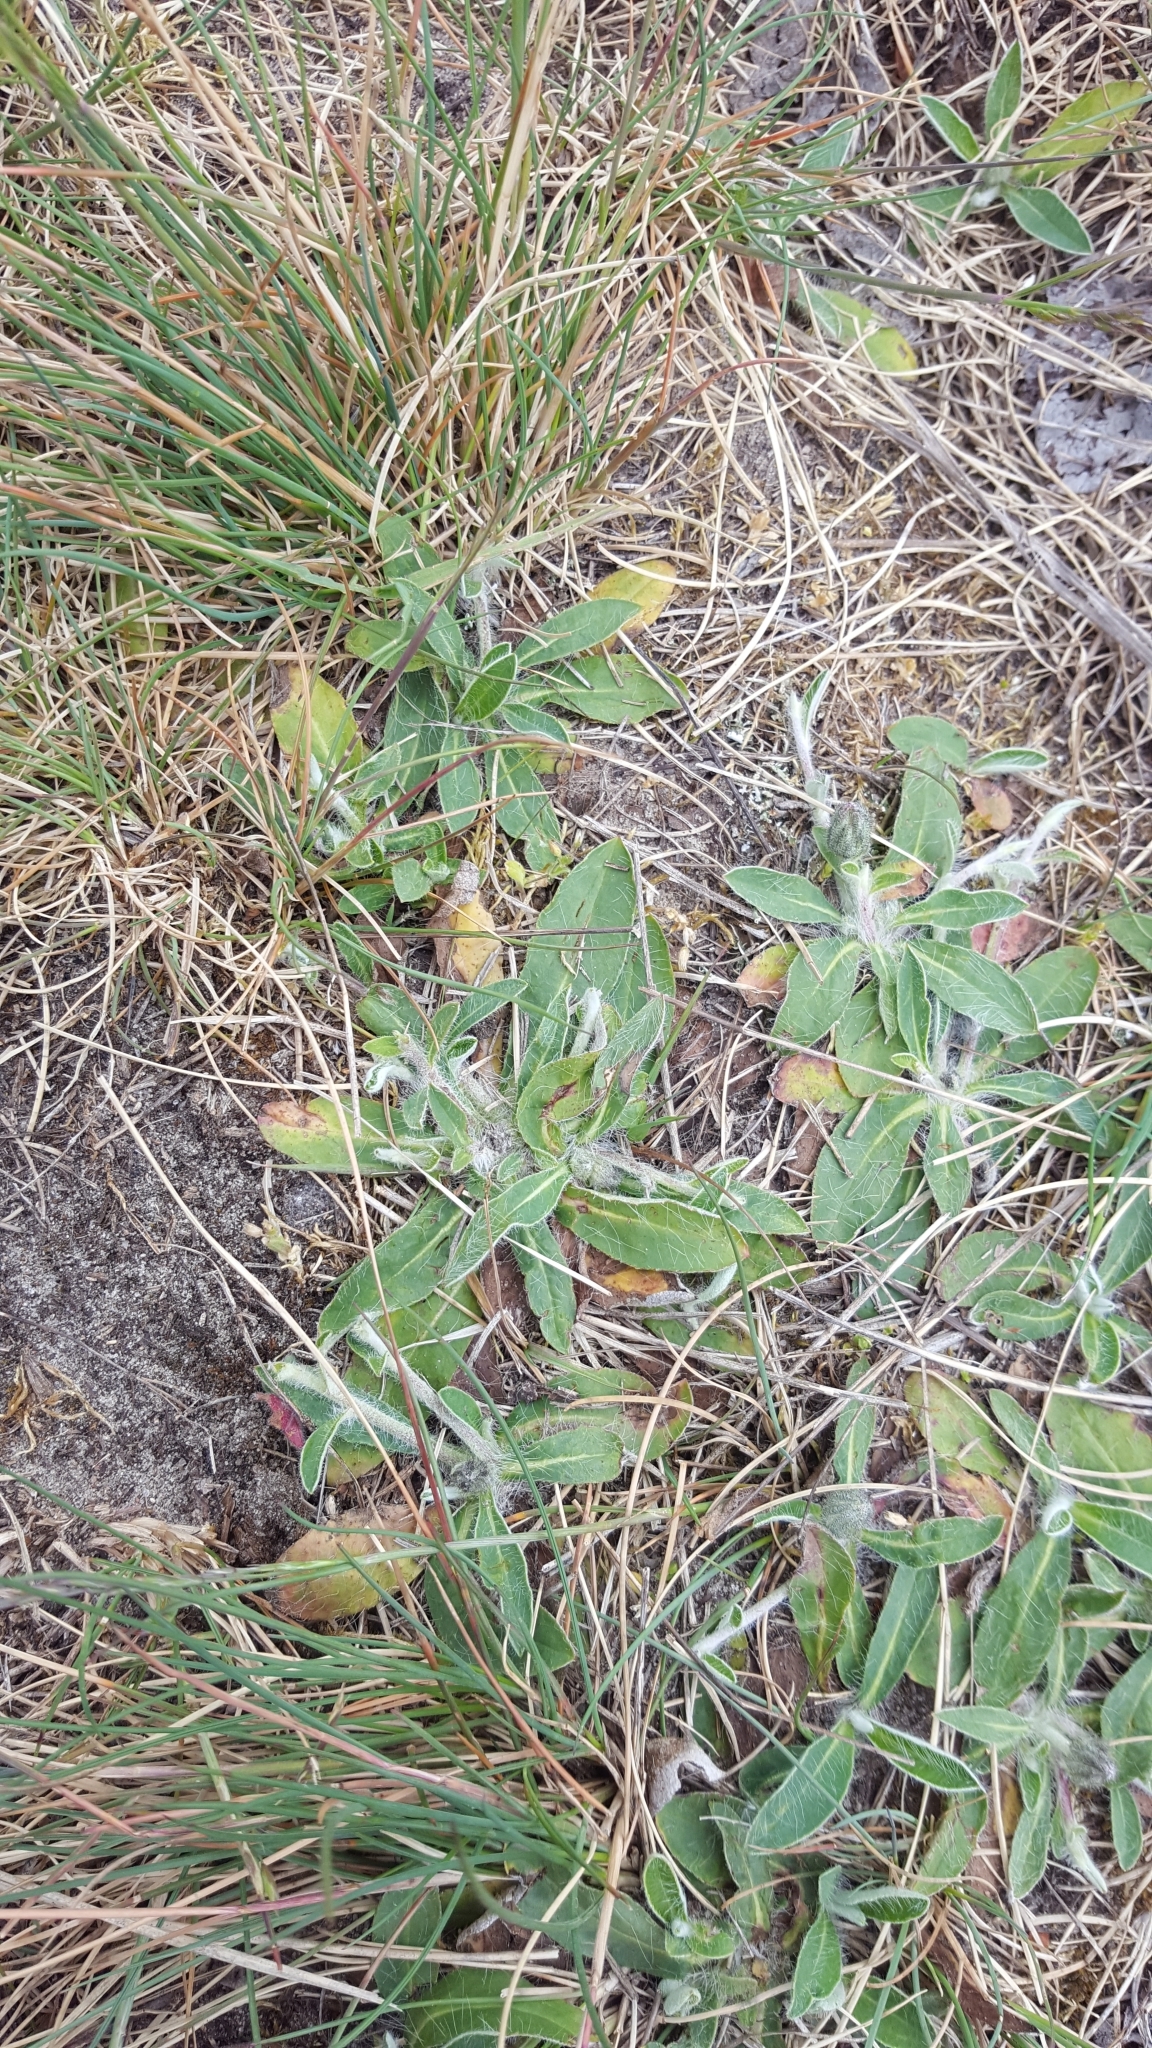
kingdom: Plantae
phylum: Tracheophyta
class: Magnoliopsida
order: Asterales
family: Asteraceae
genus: Pilosella
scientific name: Pilosella officinarum
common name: Mouse-ear hawkweed
